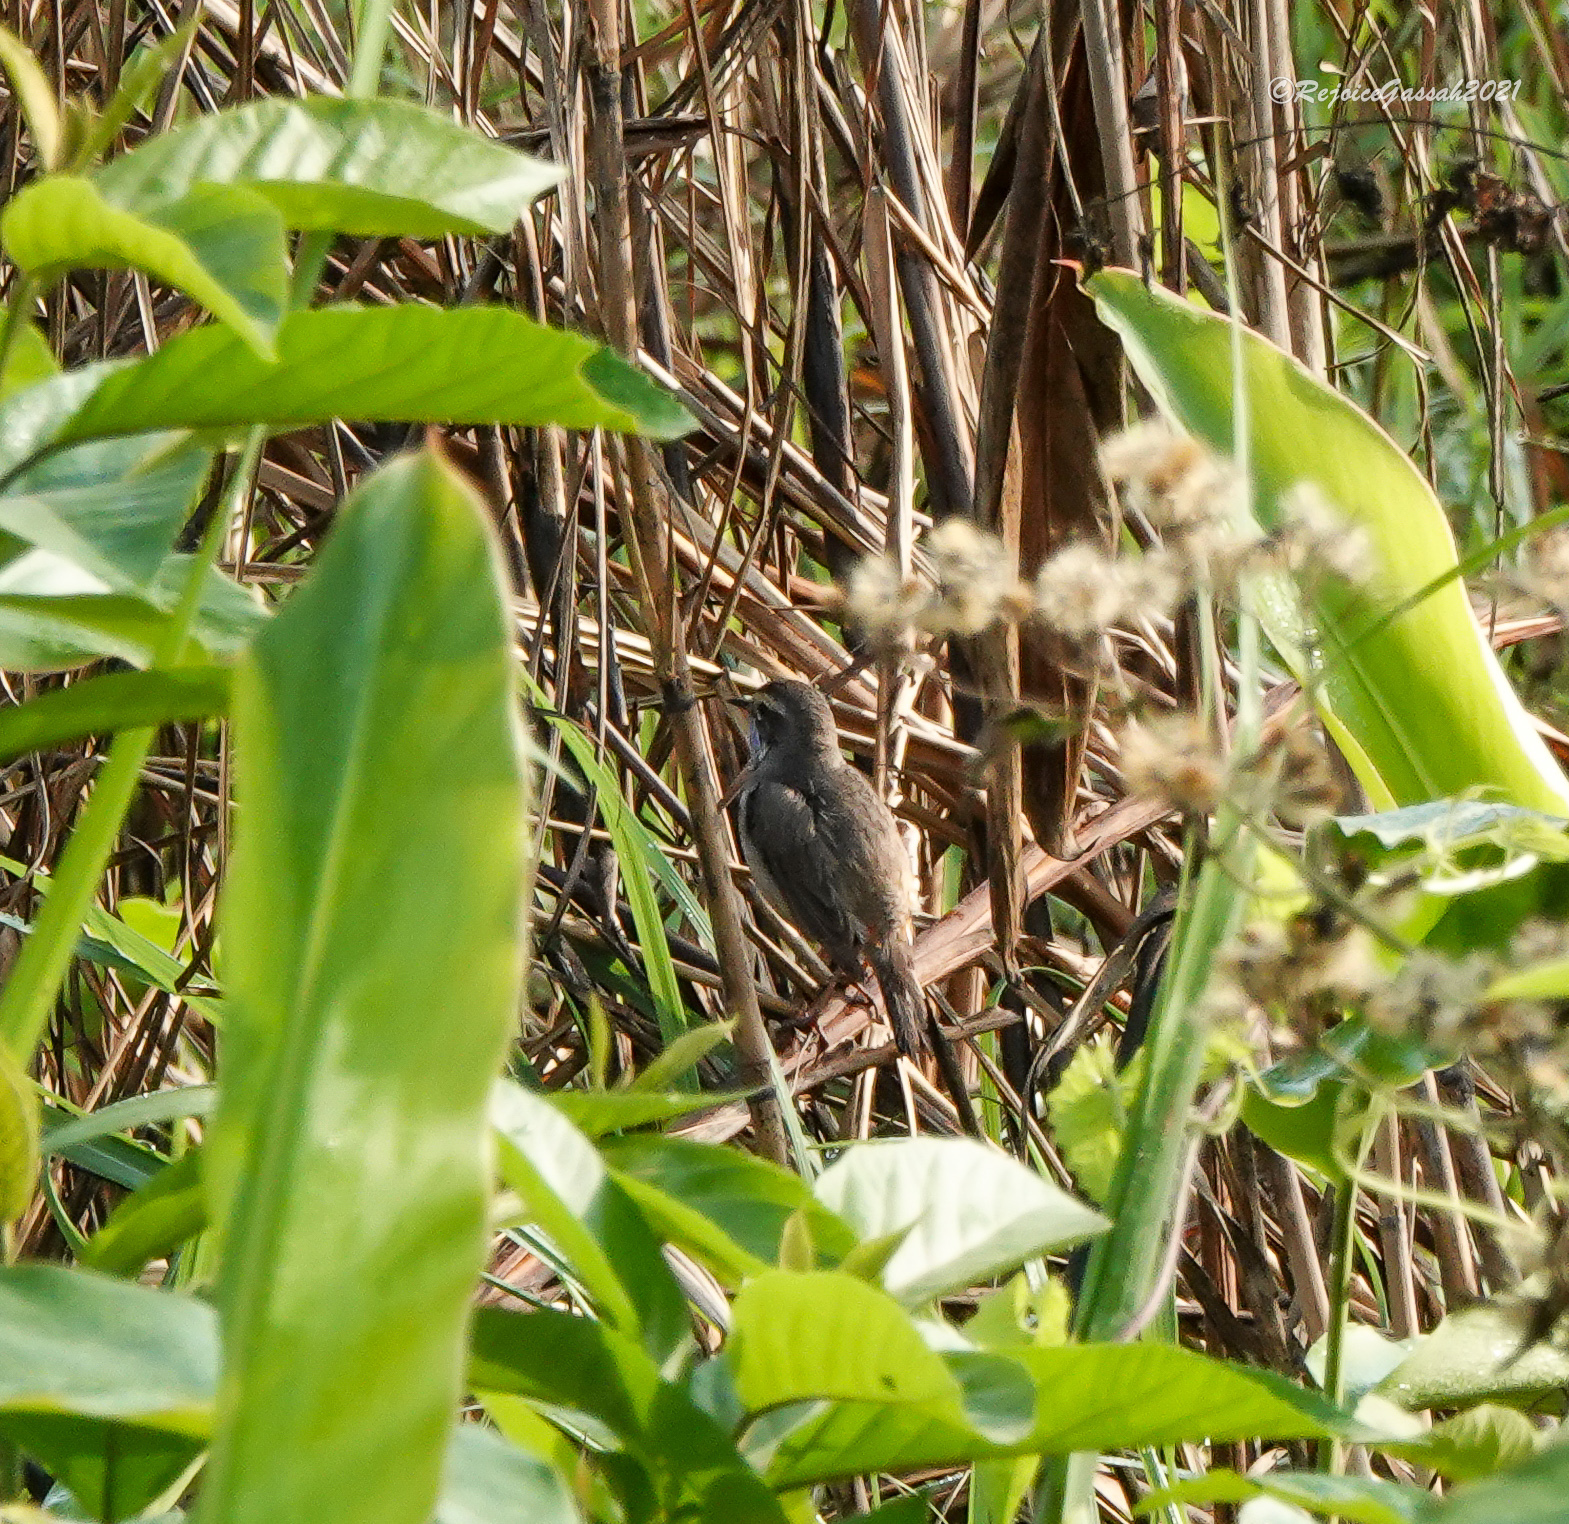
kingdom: Animalia
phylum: Chordata
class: Aves
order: Passeriformes
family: Muscicapidae
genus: Luscinia
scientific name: Luscinia svecica
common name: Bluethroat
